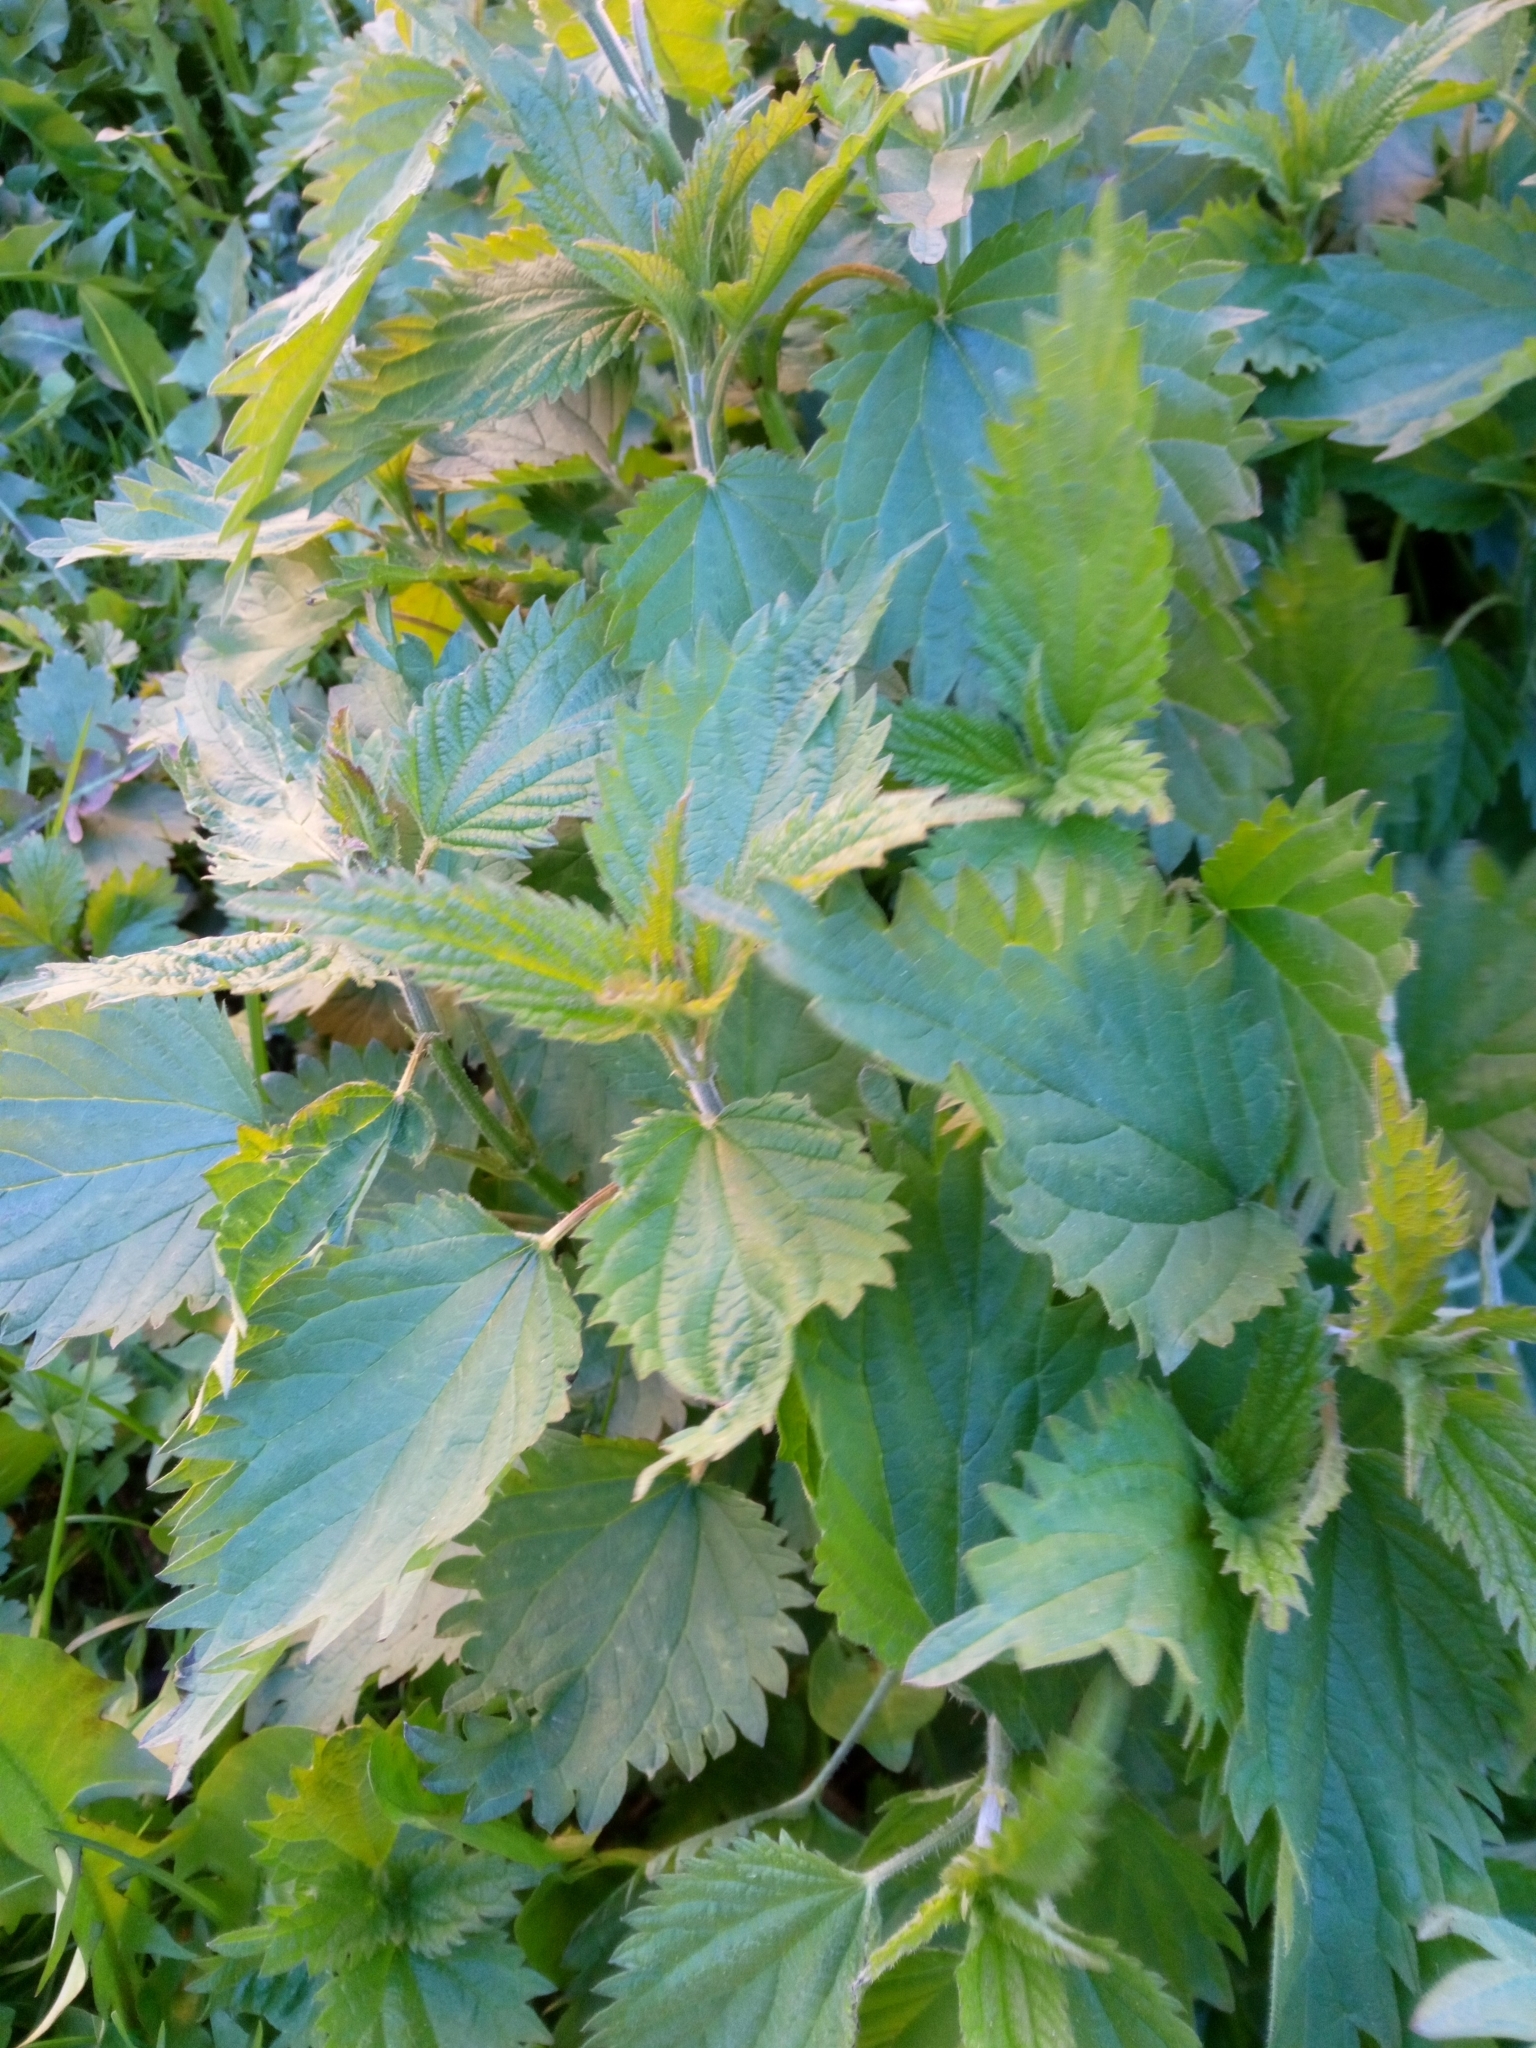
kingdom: Plantae
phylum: Tracheophyta
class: Magnoliopsida
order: Rosales
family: Urticaceae
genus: Urtica
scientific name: Urtica dioica
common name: Common nettle
